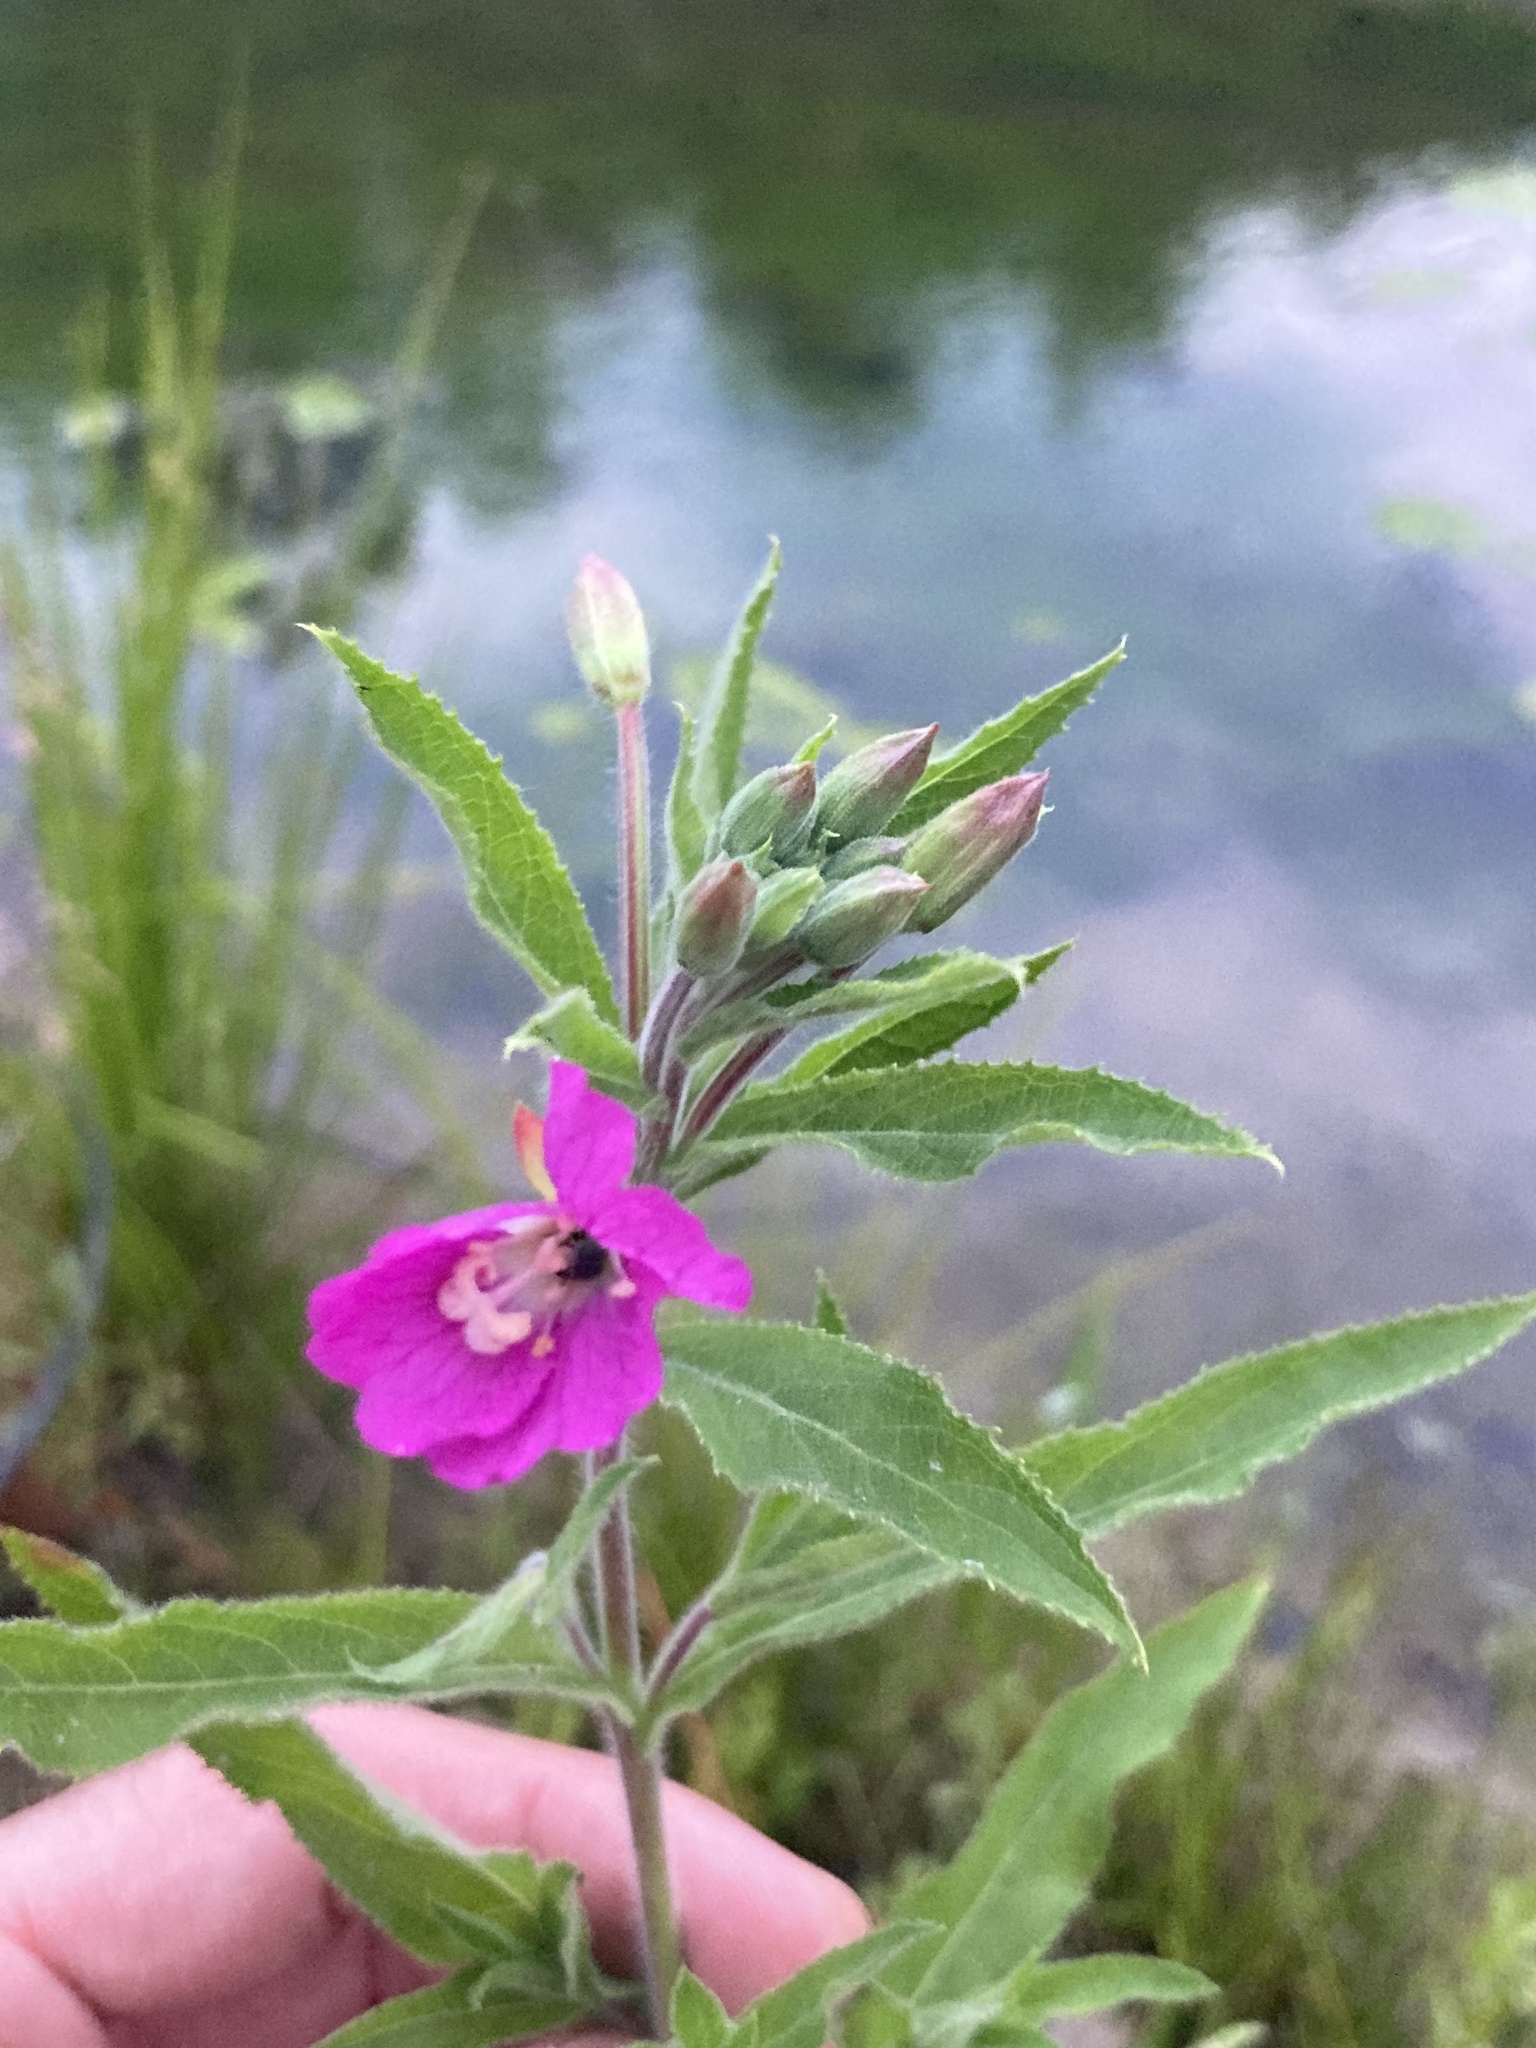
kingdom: Plantae
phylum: Tracheophyta
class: Magnoliopsida
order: Myrtales
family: Onagraceae
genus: Epilobium
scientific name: Epilobium hirsutum
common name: Great willowherb
